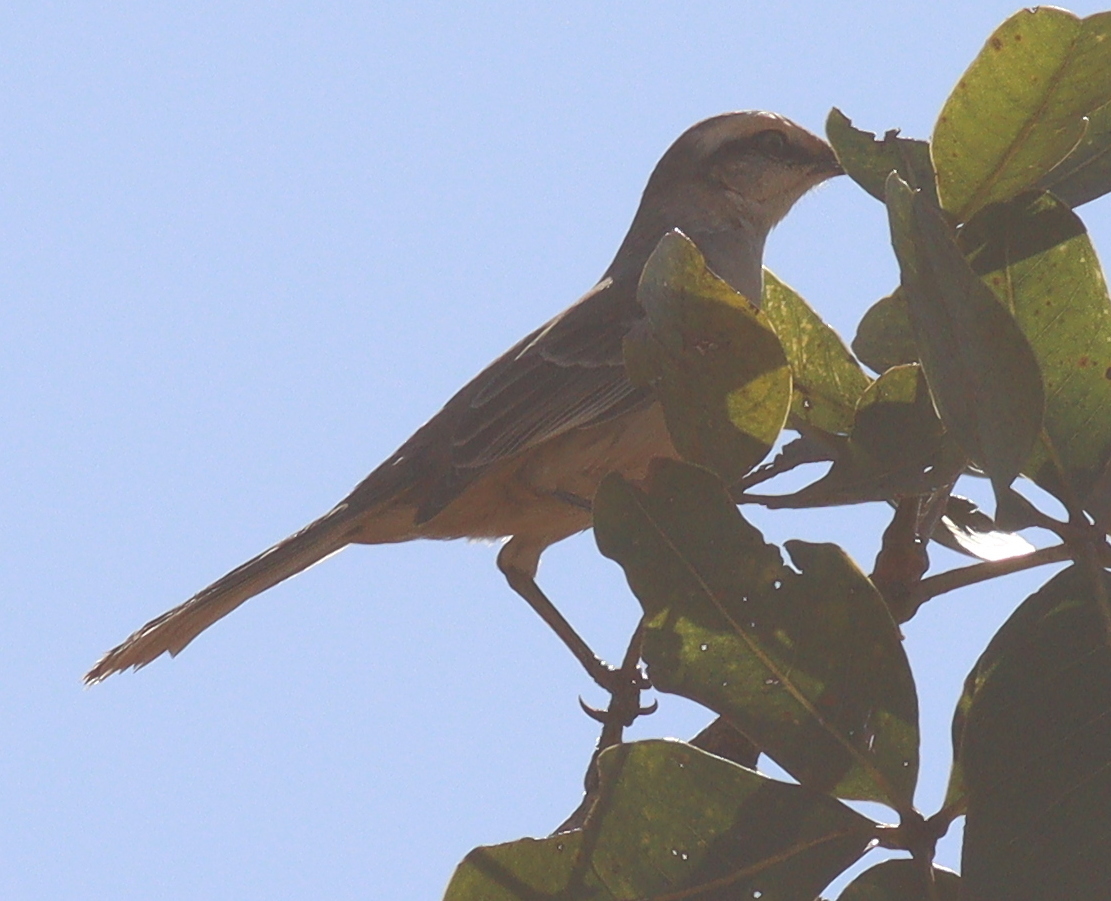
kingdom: Animalia
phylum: Chordata
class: Aves
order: Passeriformes
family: Mimidae
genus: Mimus
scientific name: Mimus saturninus
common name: Chalk-browed mockingbird
